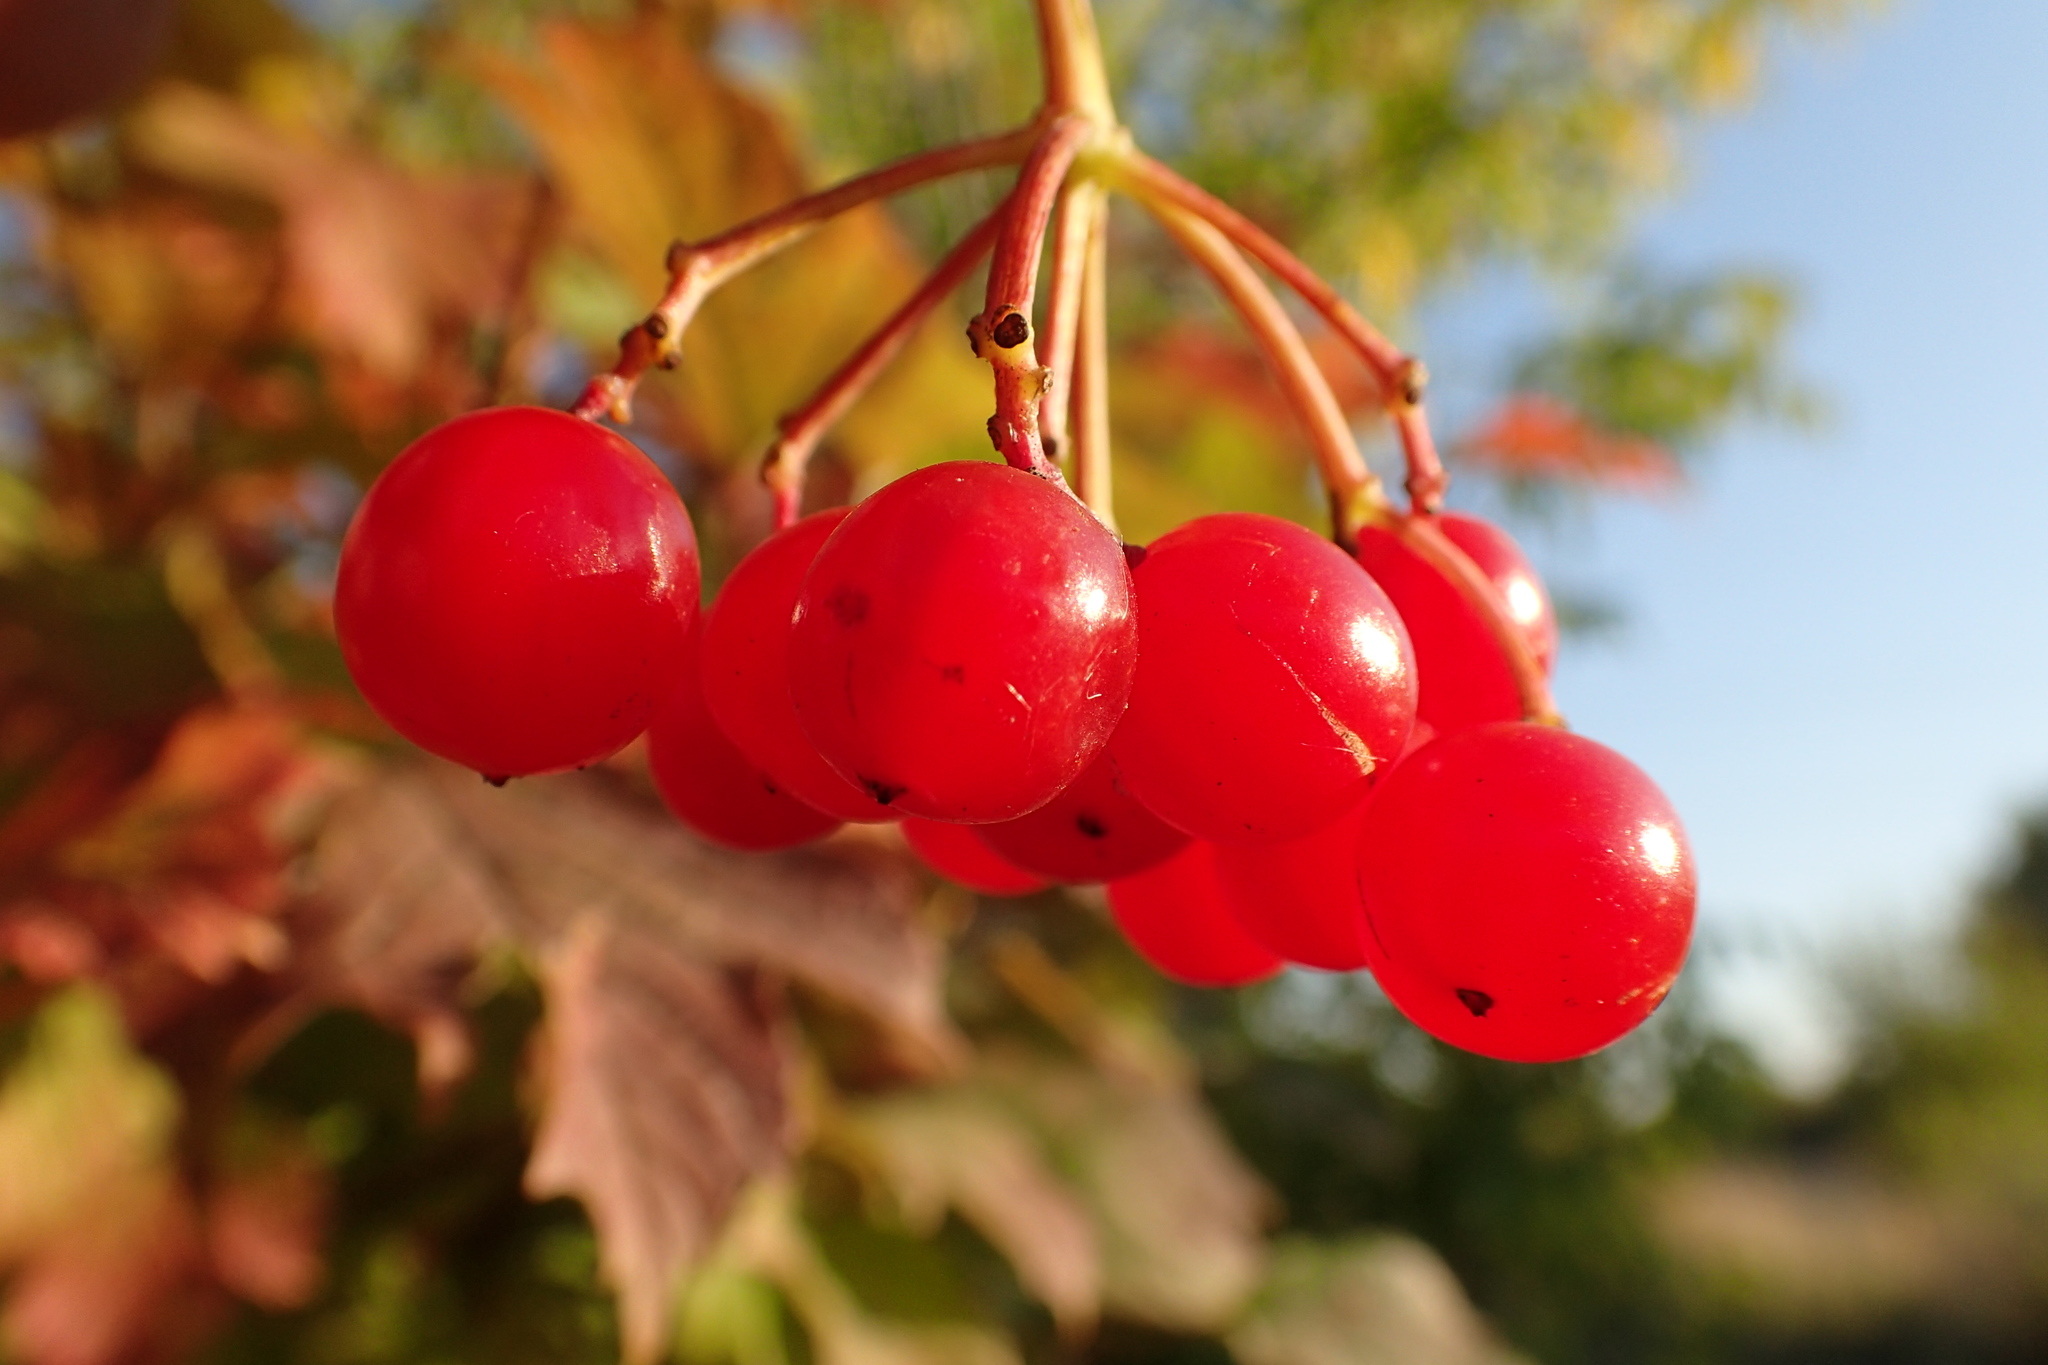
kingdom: Plantae
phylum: Tracheophyta
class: Magnoliopsida
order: Dipsacales
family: Viburnaceae
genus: Viburnum
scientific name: Viburnum opulus
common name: Guelder-rose
